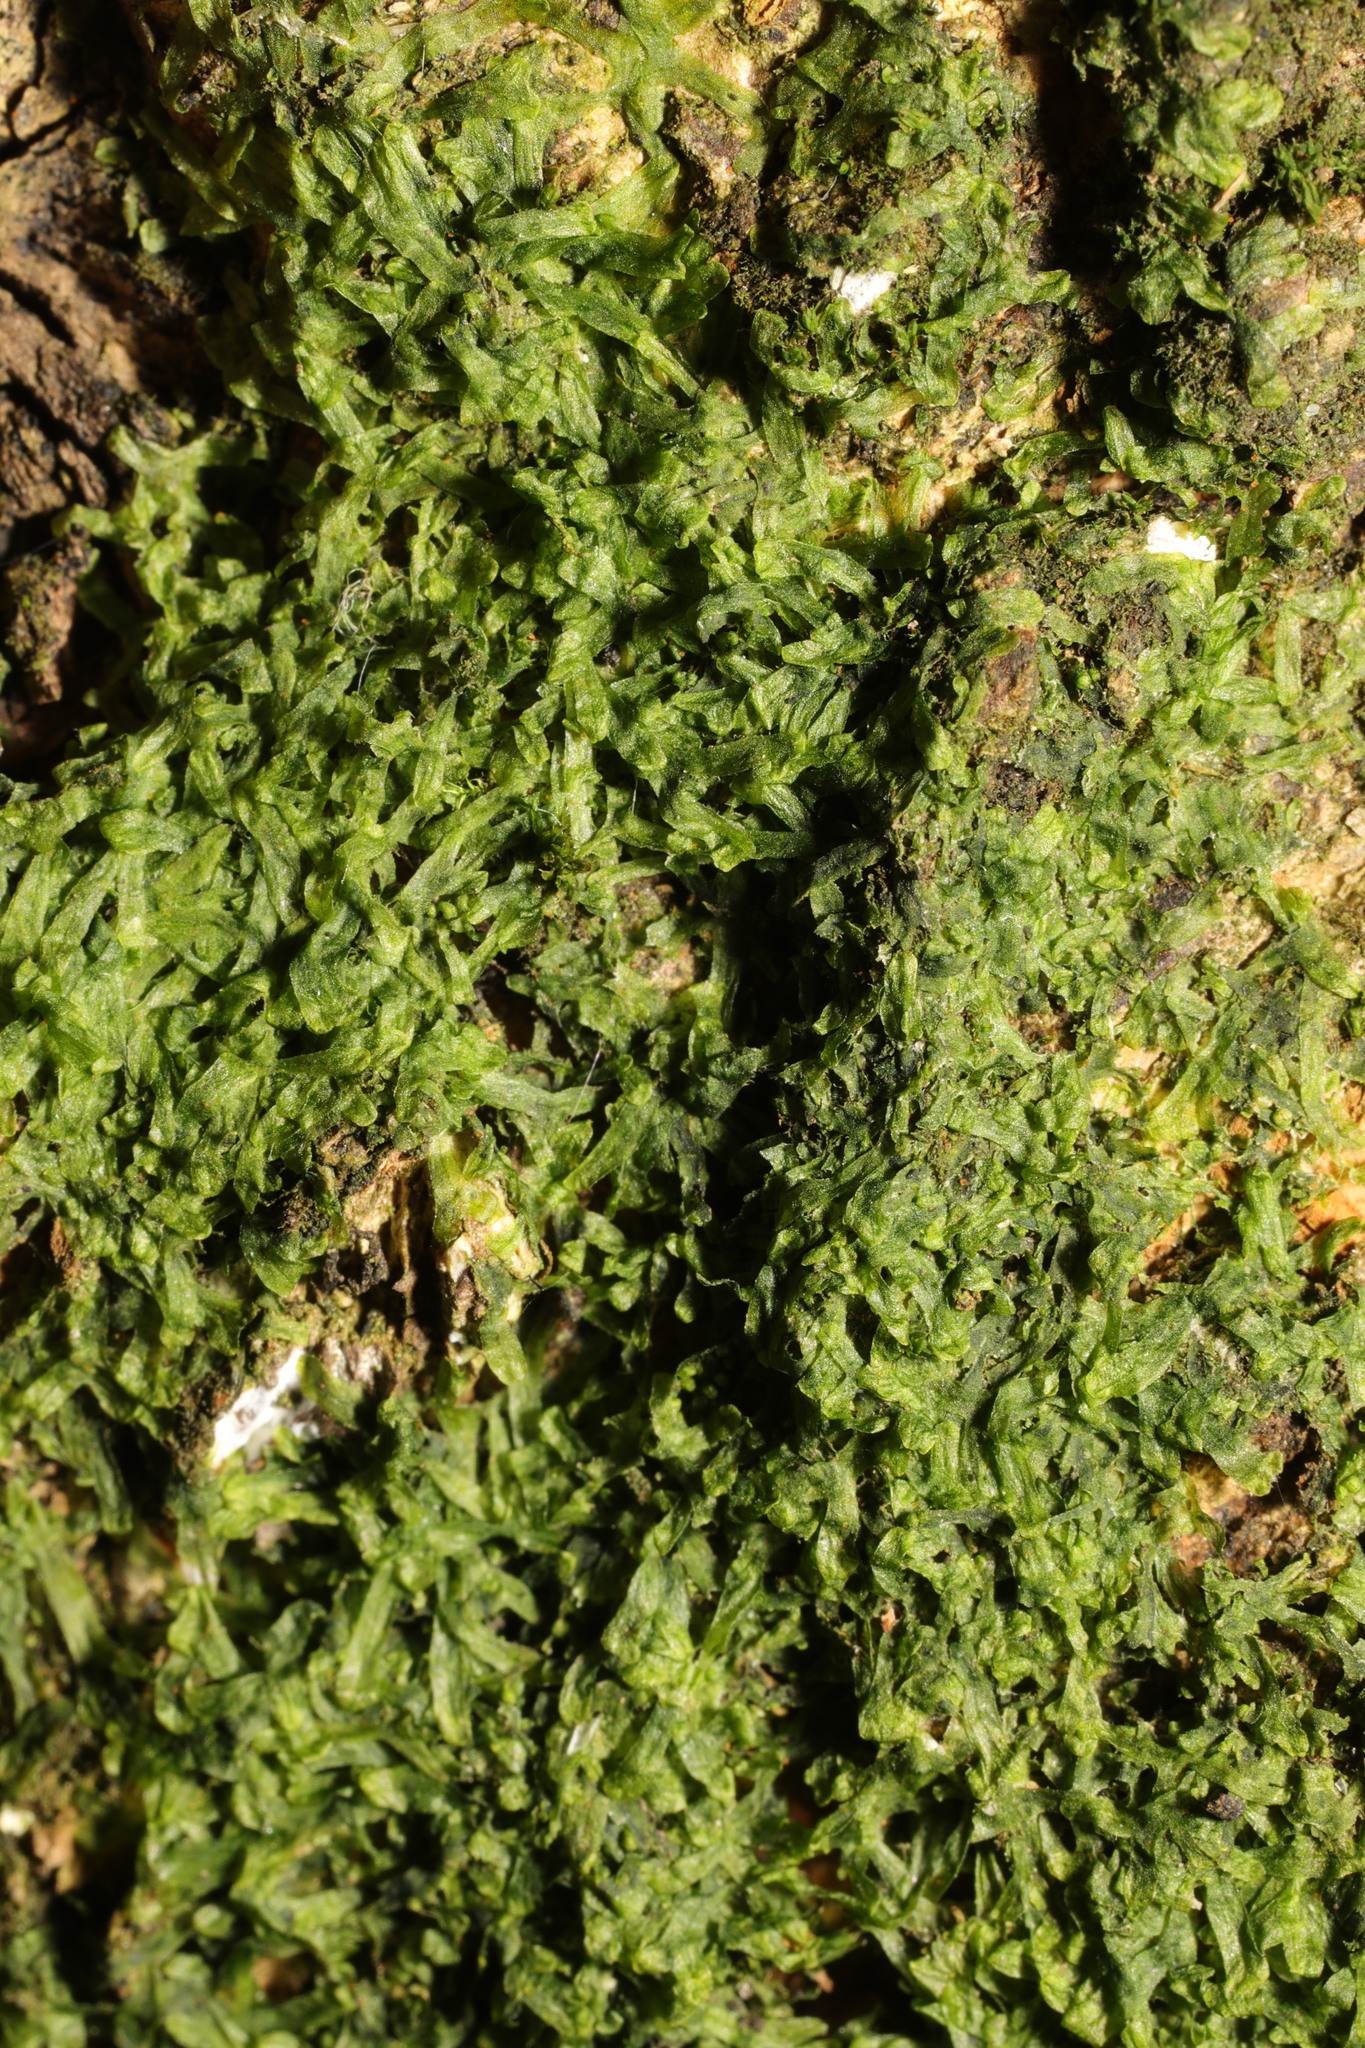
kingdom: Plantae
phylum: Marchantiophyta
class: Jungermanniopsida
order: Metzgeriales
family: Metzgeriaceae
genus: Metzgeria
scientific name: Metzgeria furcata
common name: Forked veilwort
